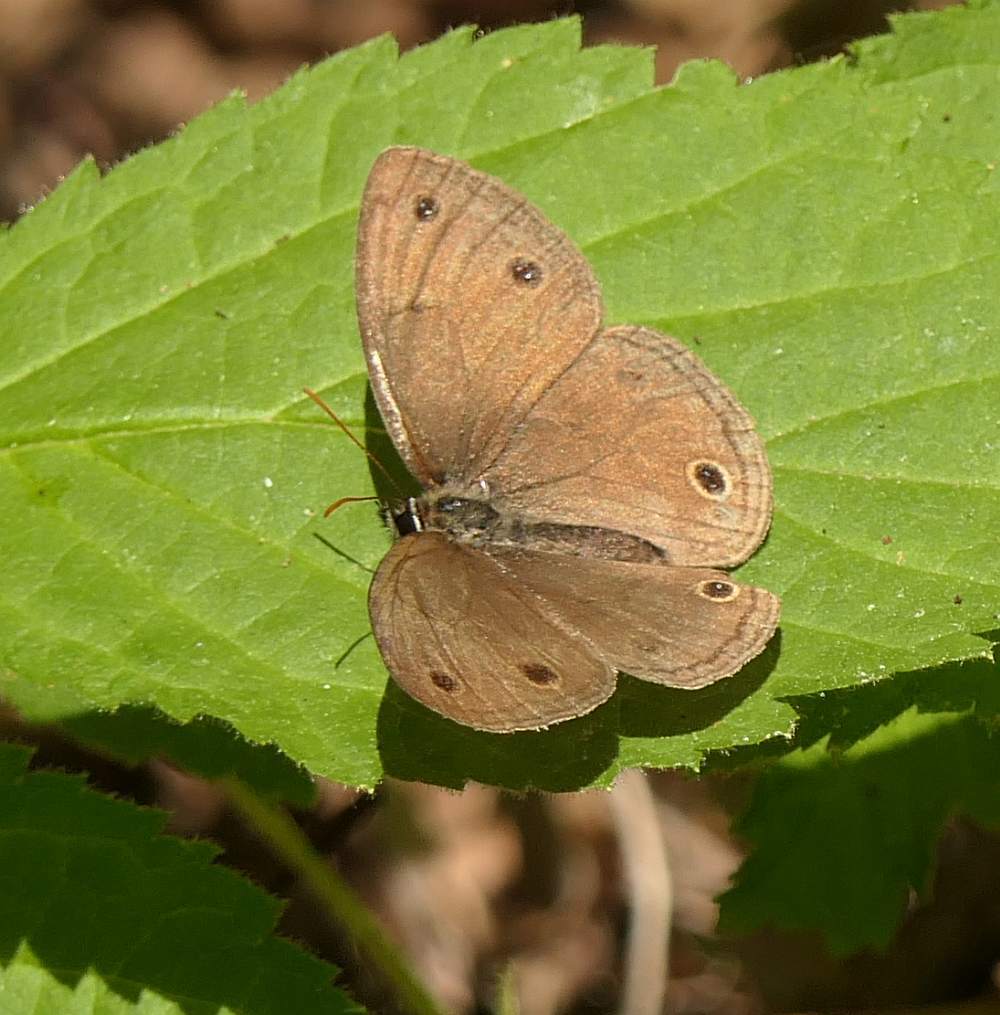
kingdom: Animalia
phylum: Arthropoda
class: Insecta
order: Lepidoptera
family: Nymphalidae
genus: Euptychia
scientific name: Euptychia cymela
